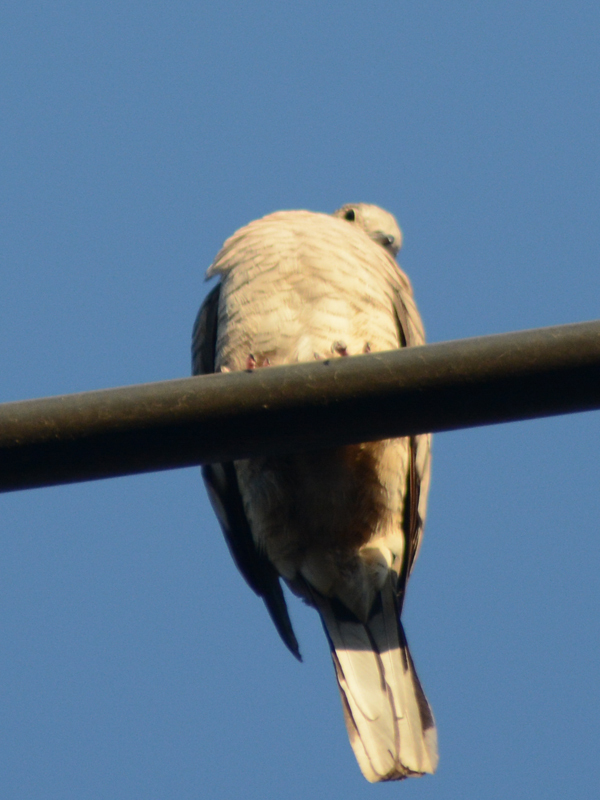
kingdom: Animalia
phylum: Chordata
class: Aves
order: Columbiformes
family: Columbidae
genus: Columbina
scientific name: Columbina inca
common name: Inca dove
